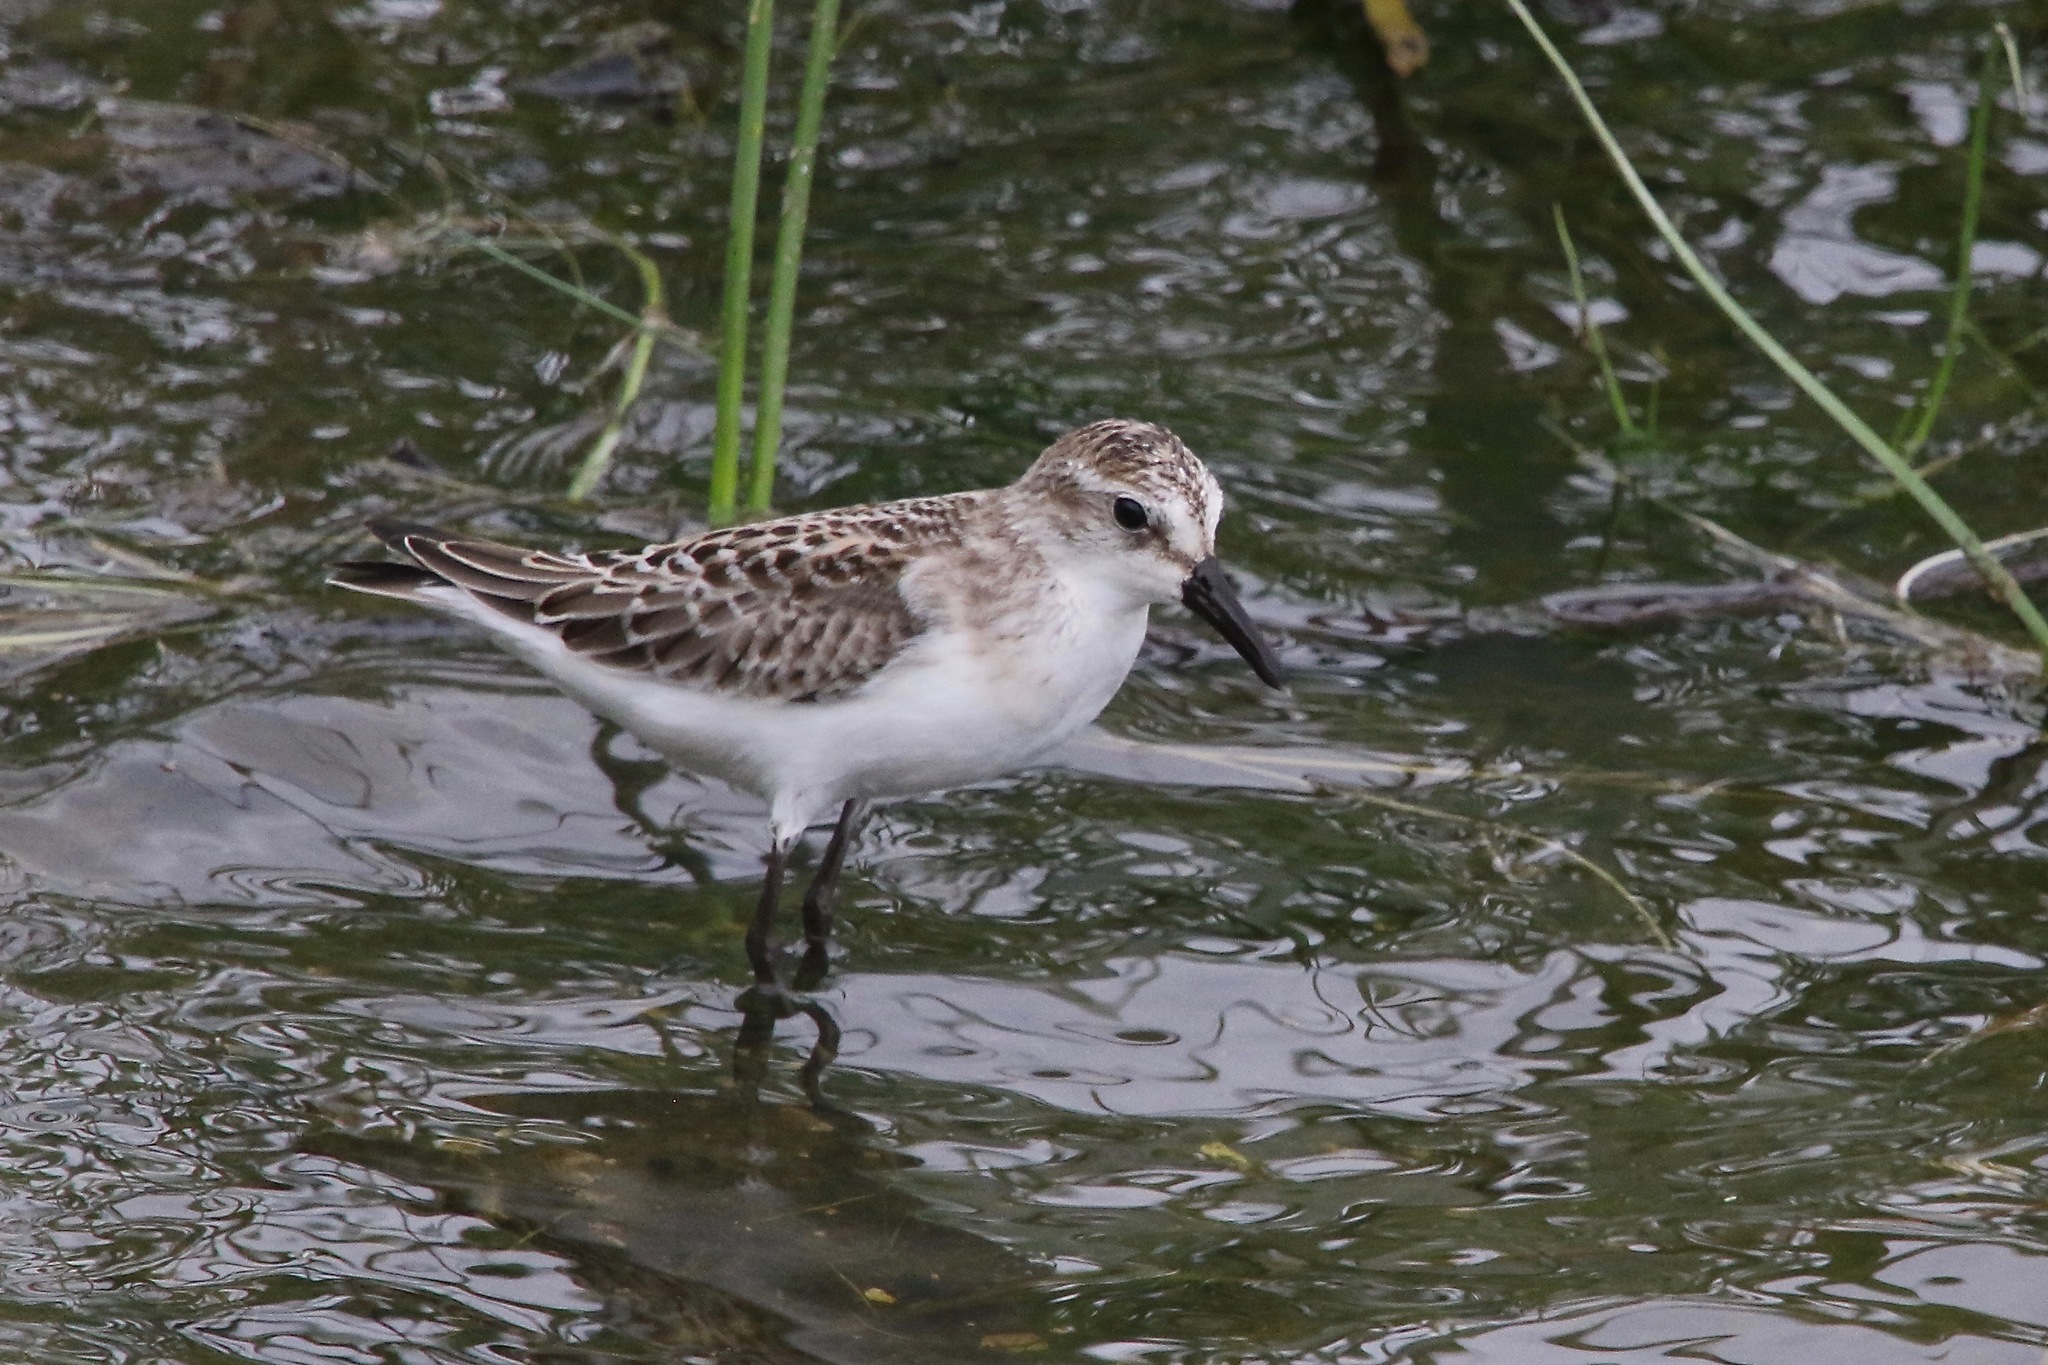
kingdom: Animalia
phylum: Chordata
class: Aves
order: Charadriiformes
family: Scolopacidae
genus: Calidris
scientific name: Calidris pusilla
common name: Semipalmated sandpiper
